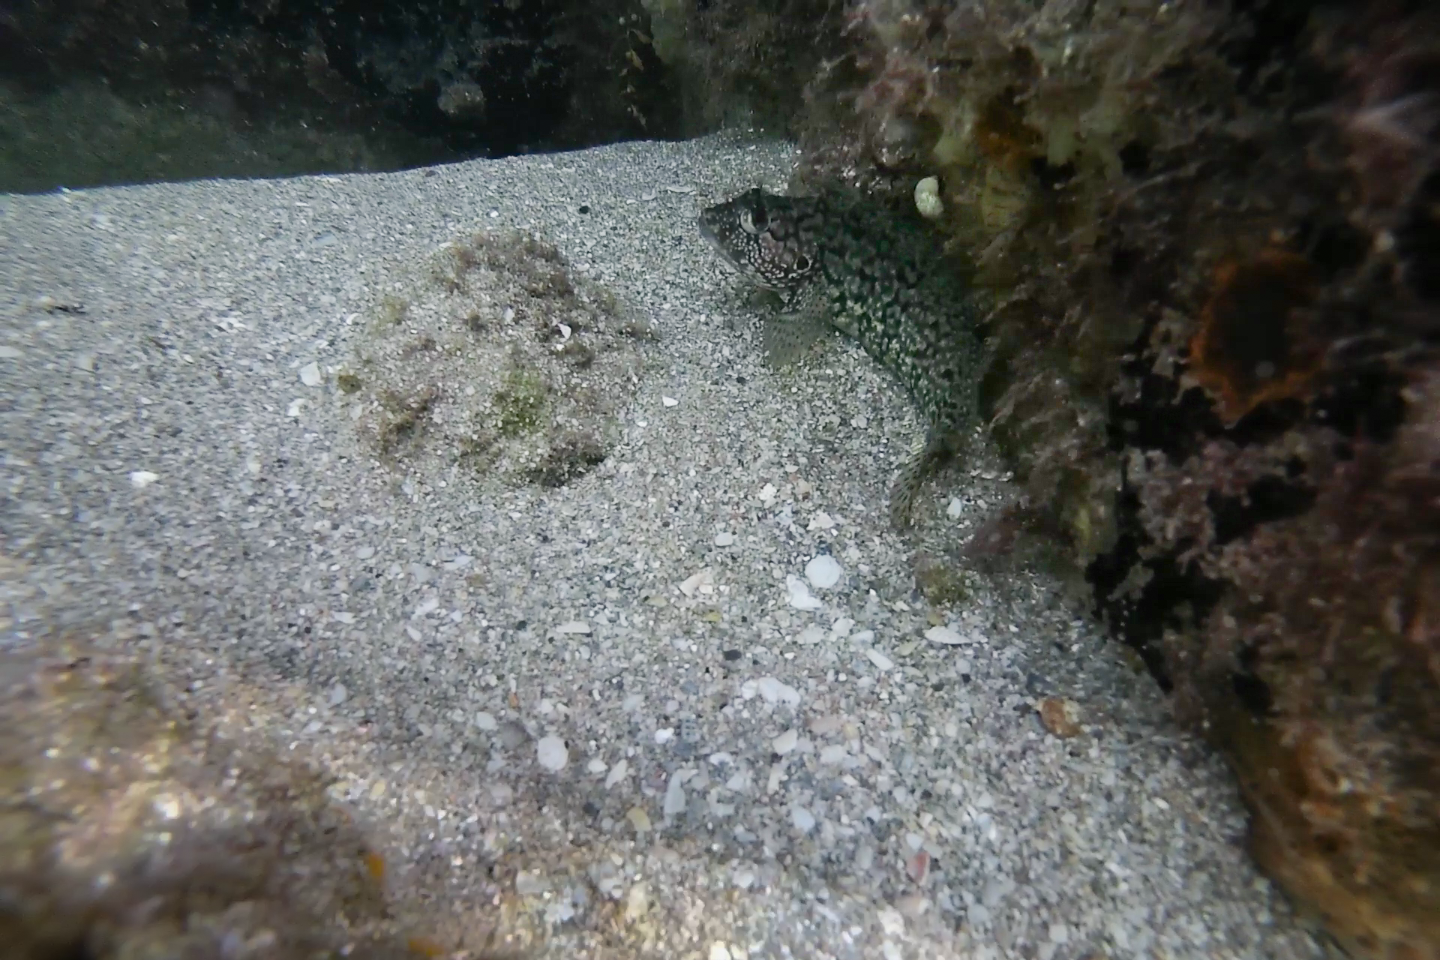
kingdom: Animalia
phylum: Chordata
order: Perciformes
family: Labrisomidae
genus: Labrisomus
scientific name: Labrisomus conditus
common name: Masquerader hairy blenny
